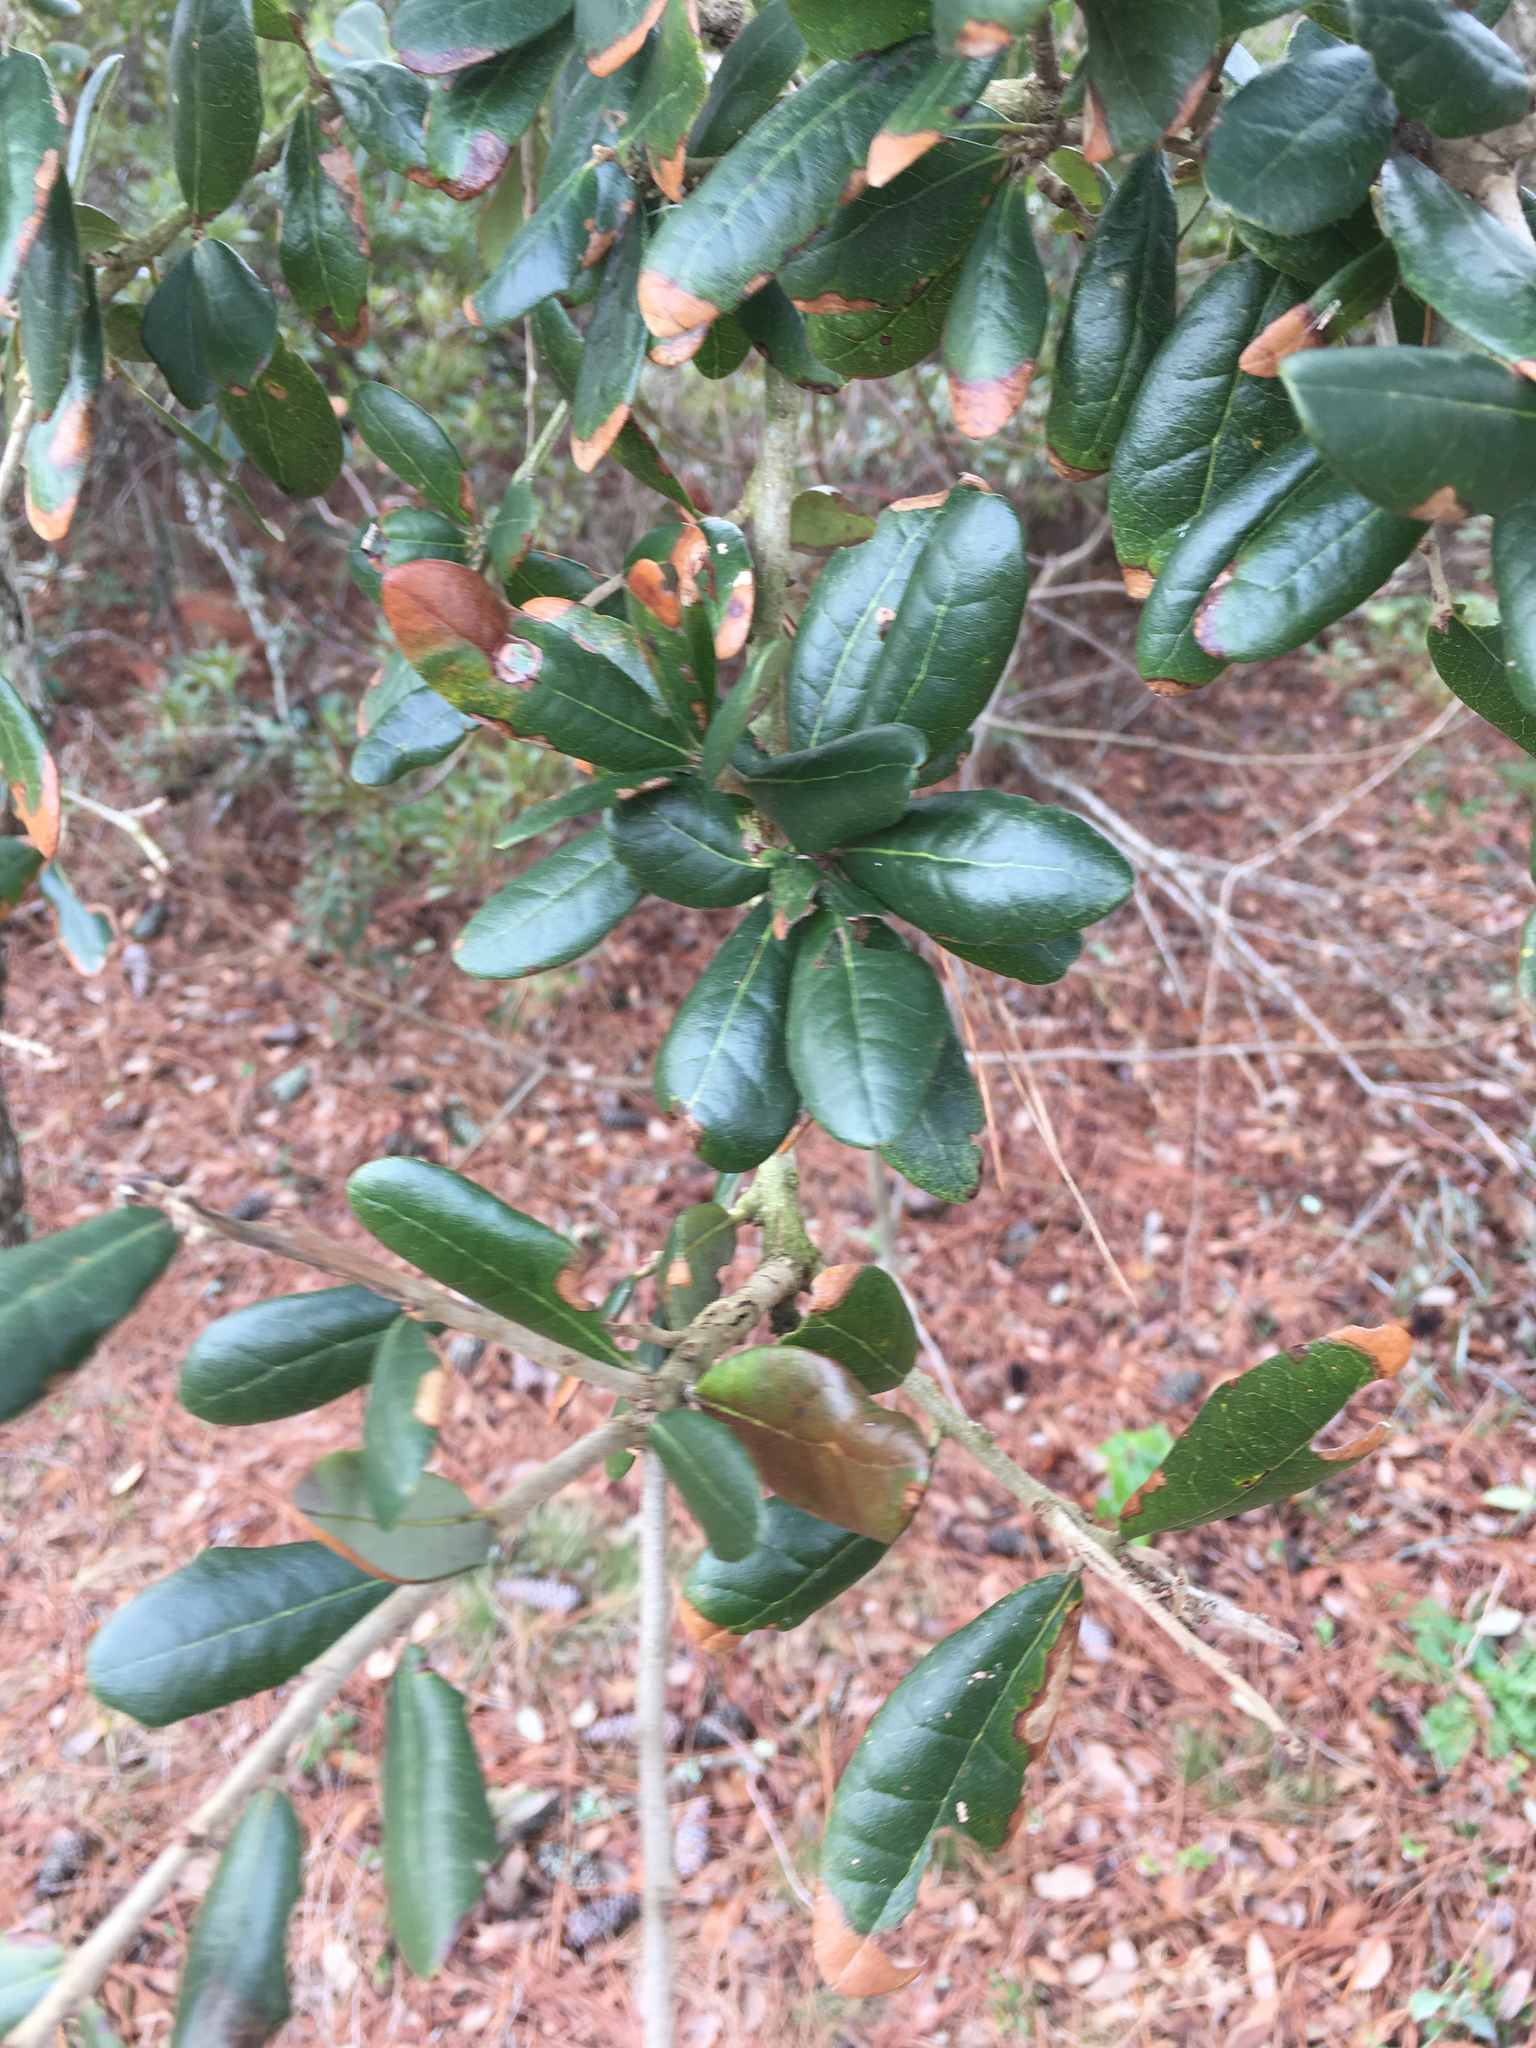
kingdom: Plantae
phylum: Tracheophyta
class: Magnoliopsida
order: Fagales
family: Fagaceae
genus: Quercus
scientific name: Quercus virginiana
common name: Southern live oak
